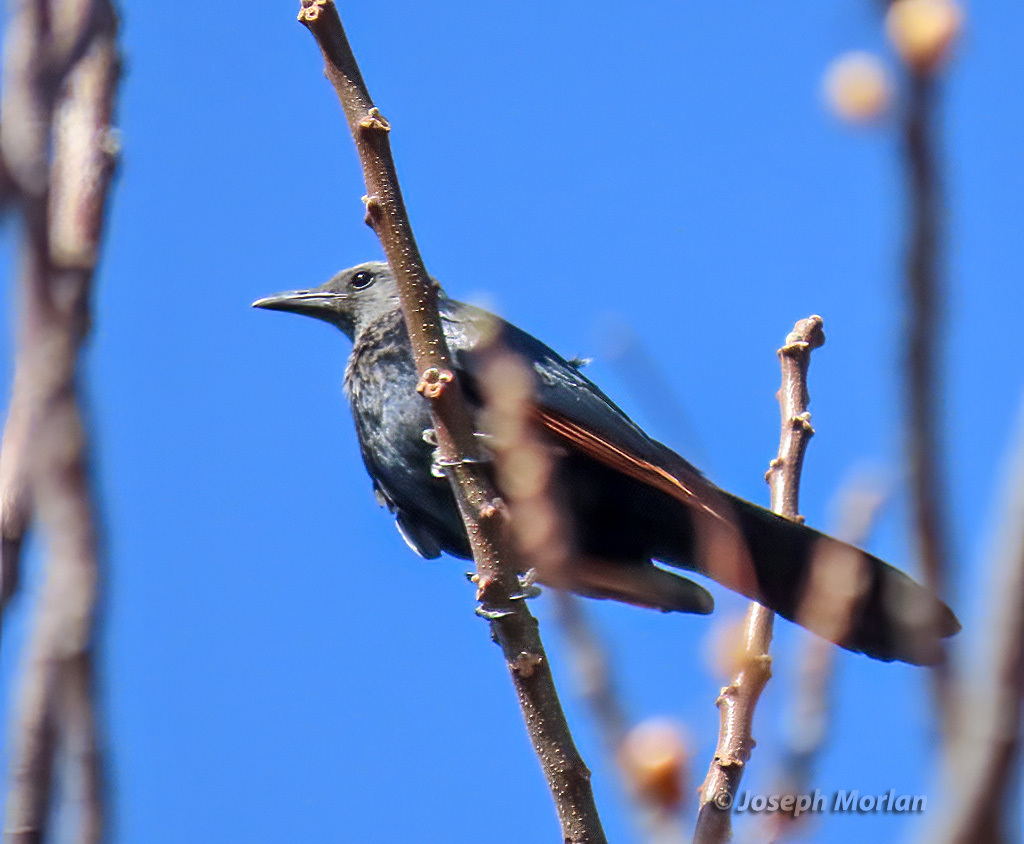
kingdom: Animalia
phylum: Chordata
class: Aves
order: Passeriformes
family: Sturnidae
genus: Onychognathus
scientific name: Onychognathus morio
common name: Red-winged starling
